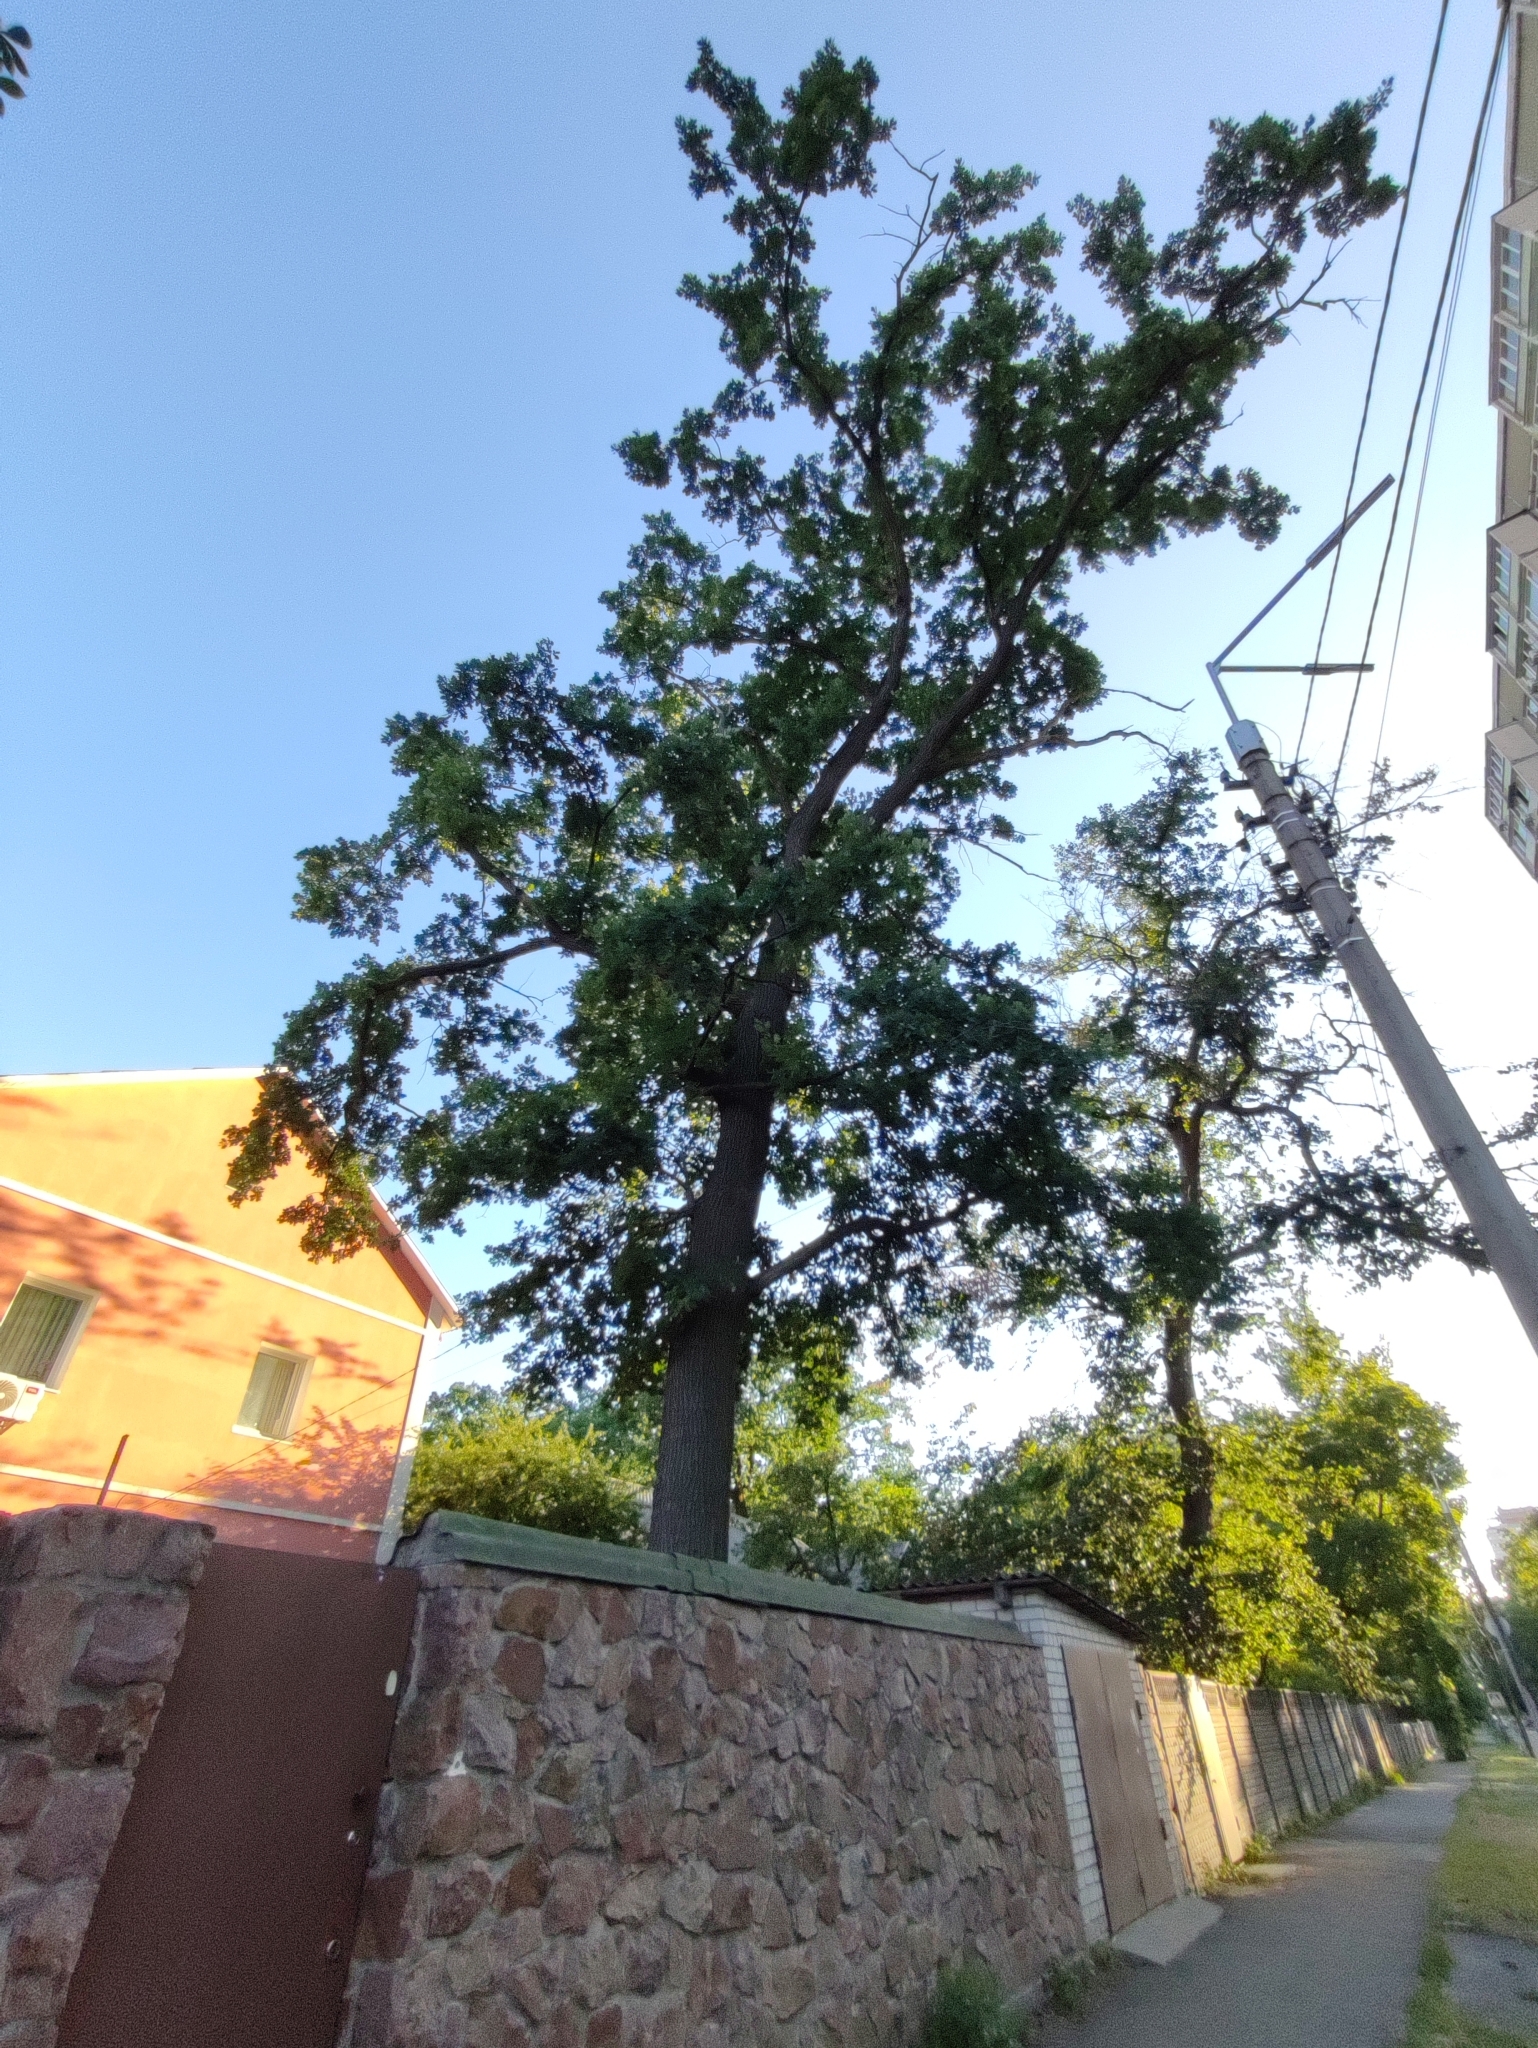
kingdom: Plantae
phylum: Tracheophyta
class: Magnoliopsida
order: Fagales
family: Fagaceae
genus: Quercus
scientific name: Quercus robur
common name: Pedunculate oak
